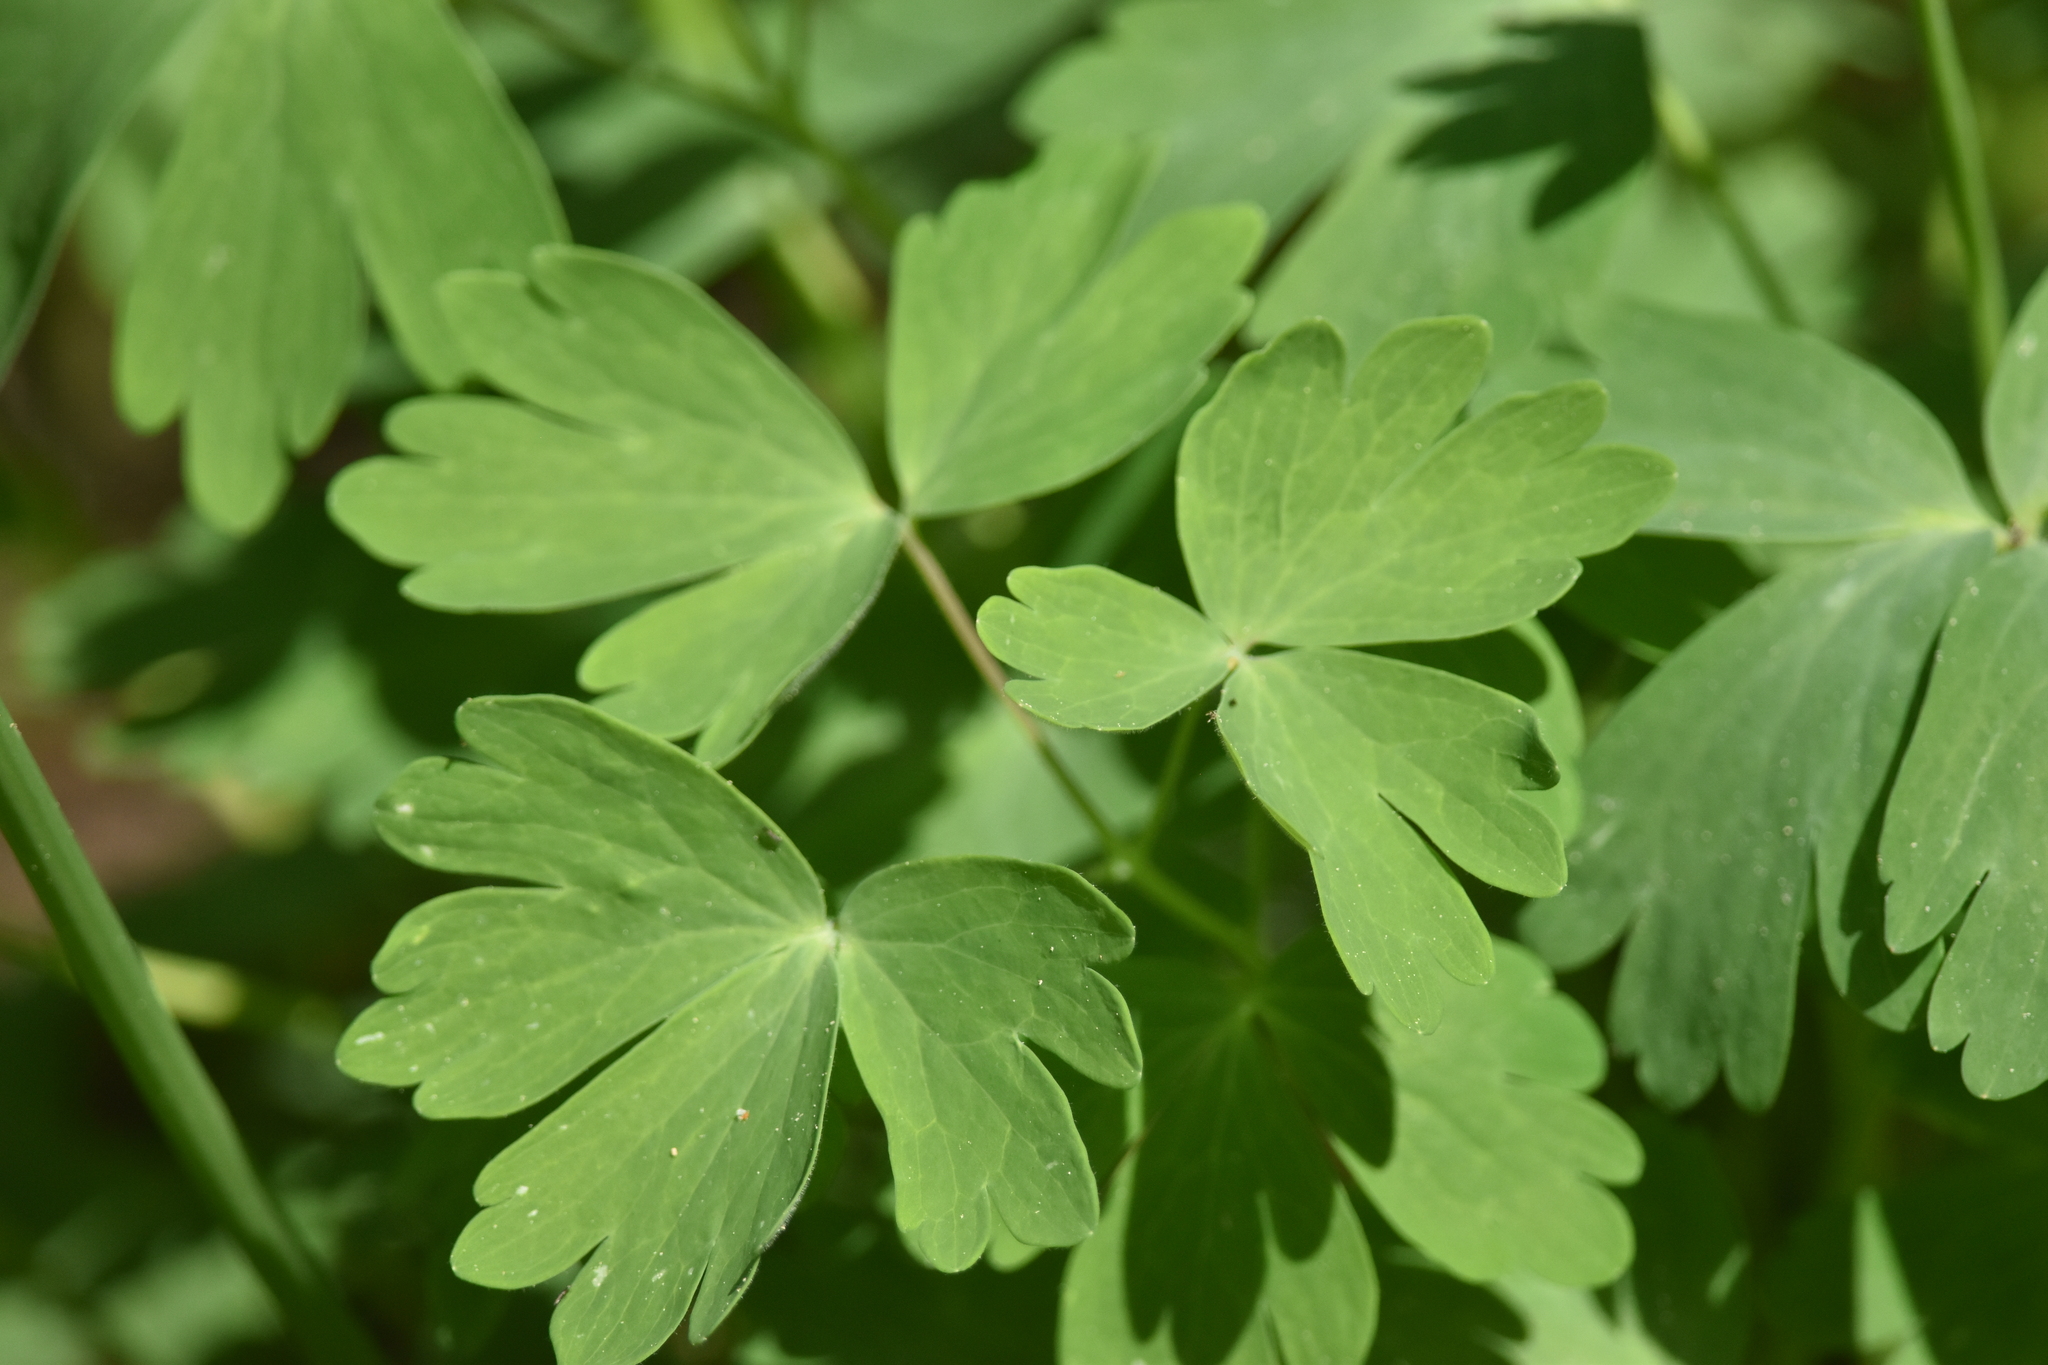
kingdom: Plantae
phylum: Tracheophyta
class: Magnoliopsida
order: Ranunculales
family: Ranunculaceae
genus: Aquilegia
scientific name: Aquilegia formosa
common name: Sitka columbine
